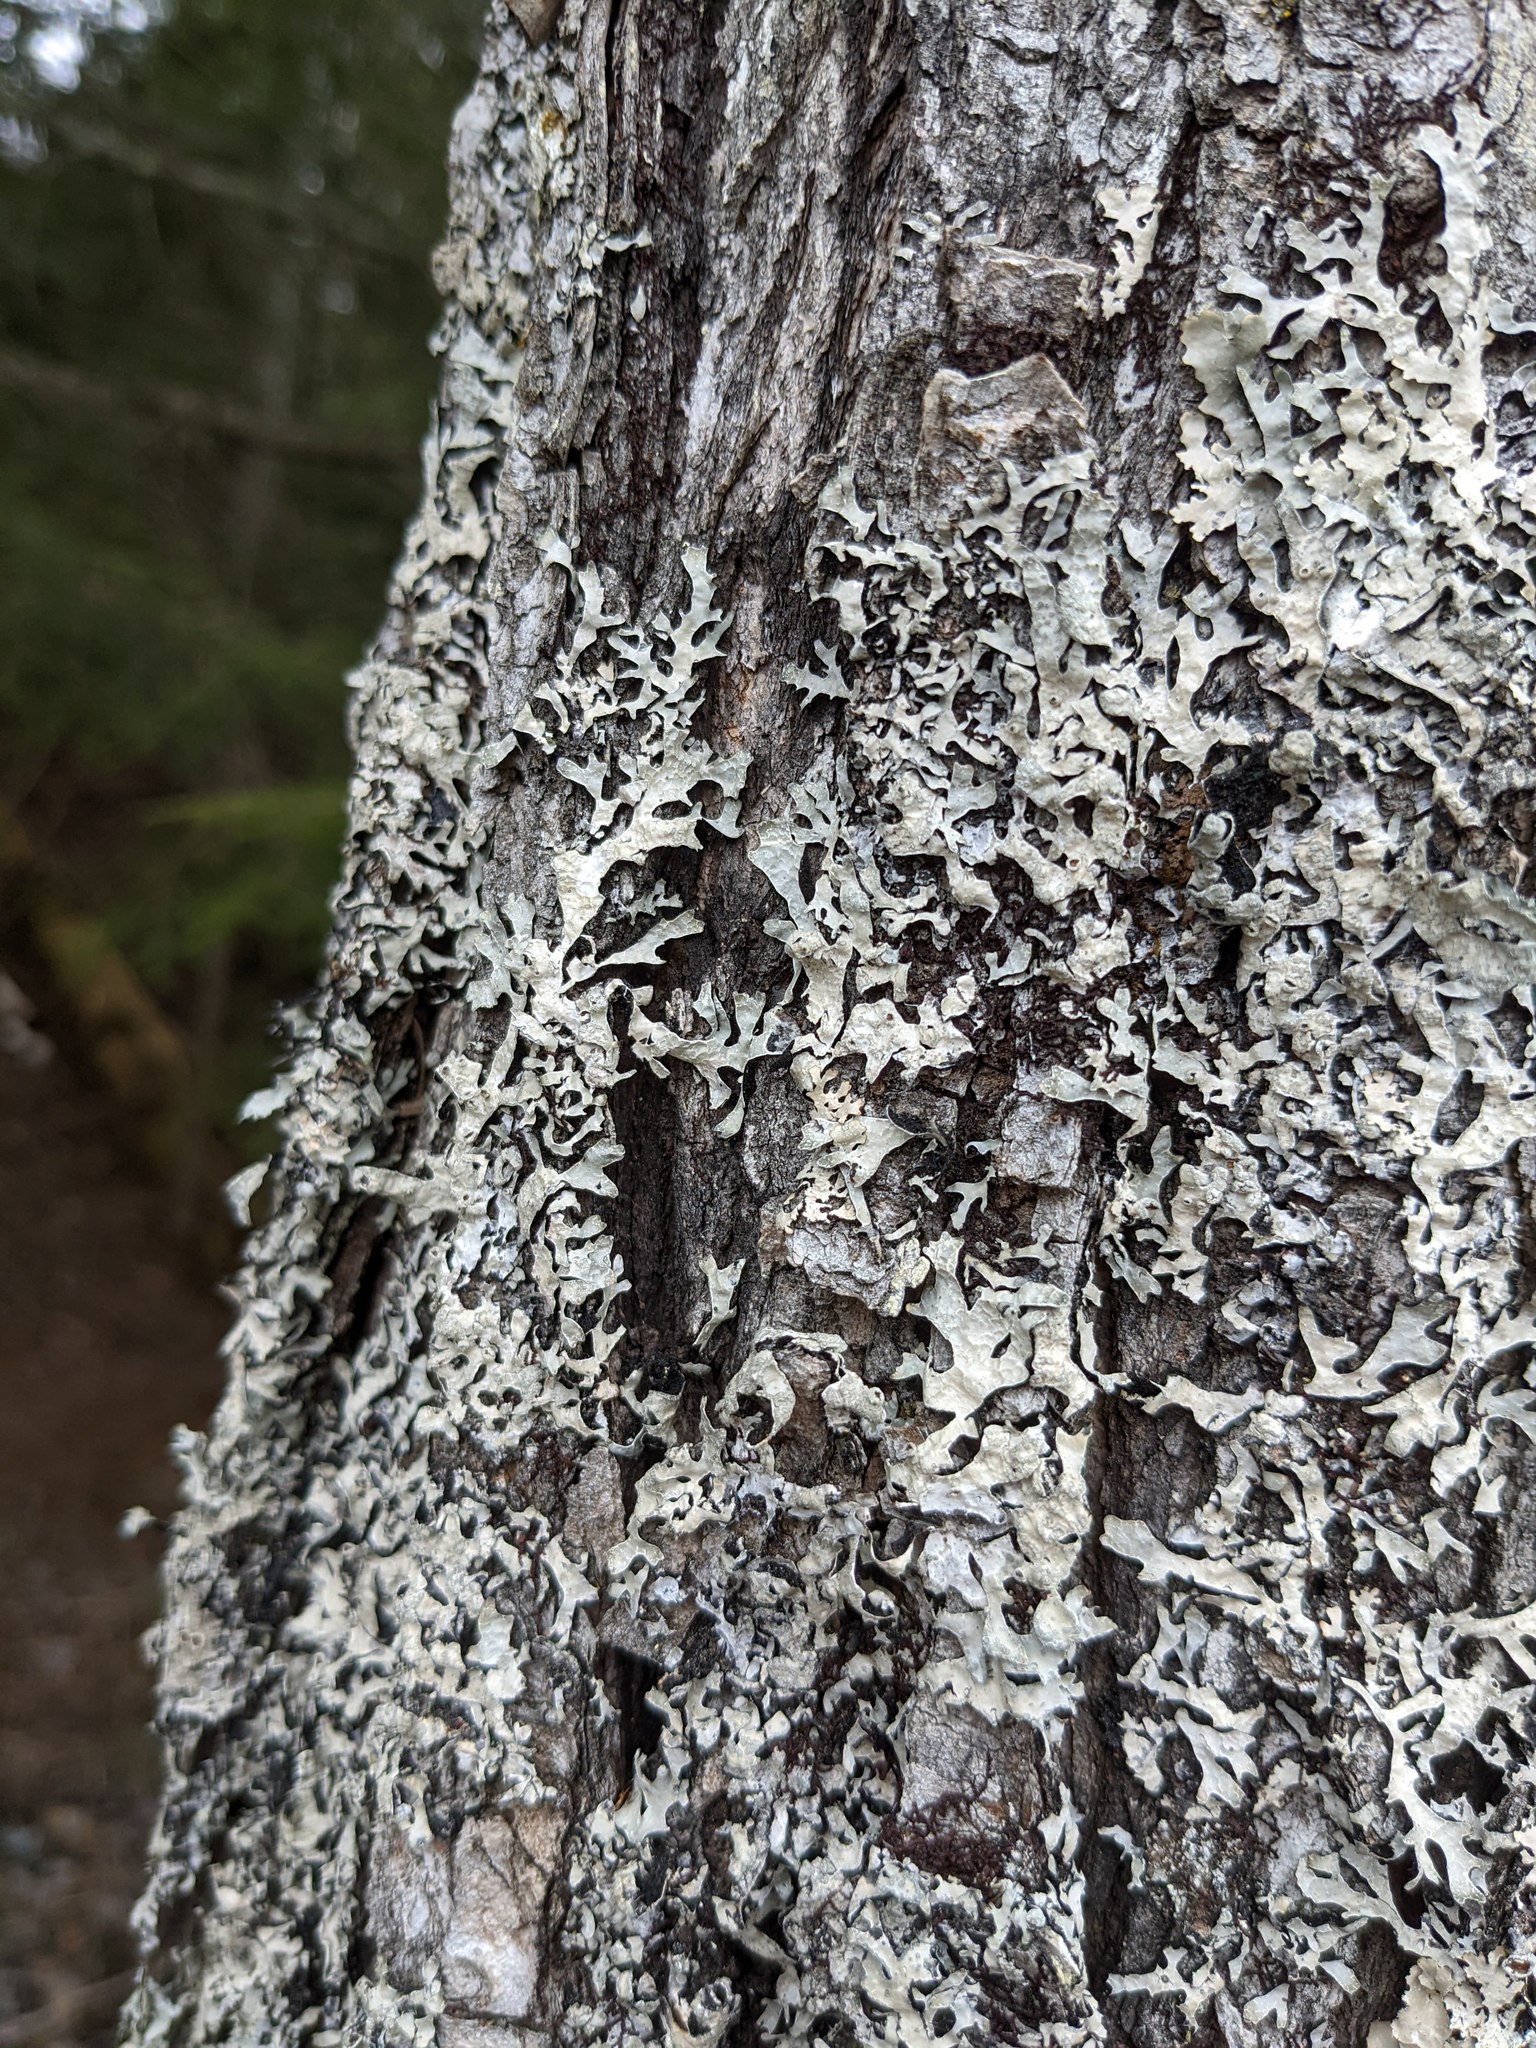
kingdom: Fungi
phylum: Ascomycota
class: Lecanoromycetes
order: Lecanorales
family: Parmeliaceae
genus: Parmelia
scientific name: Parmelia sulcata
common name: Netted shield lichen
